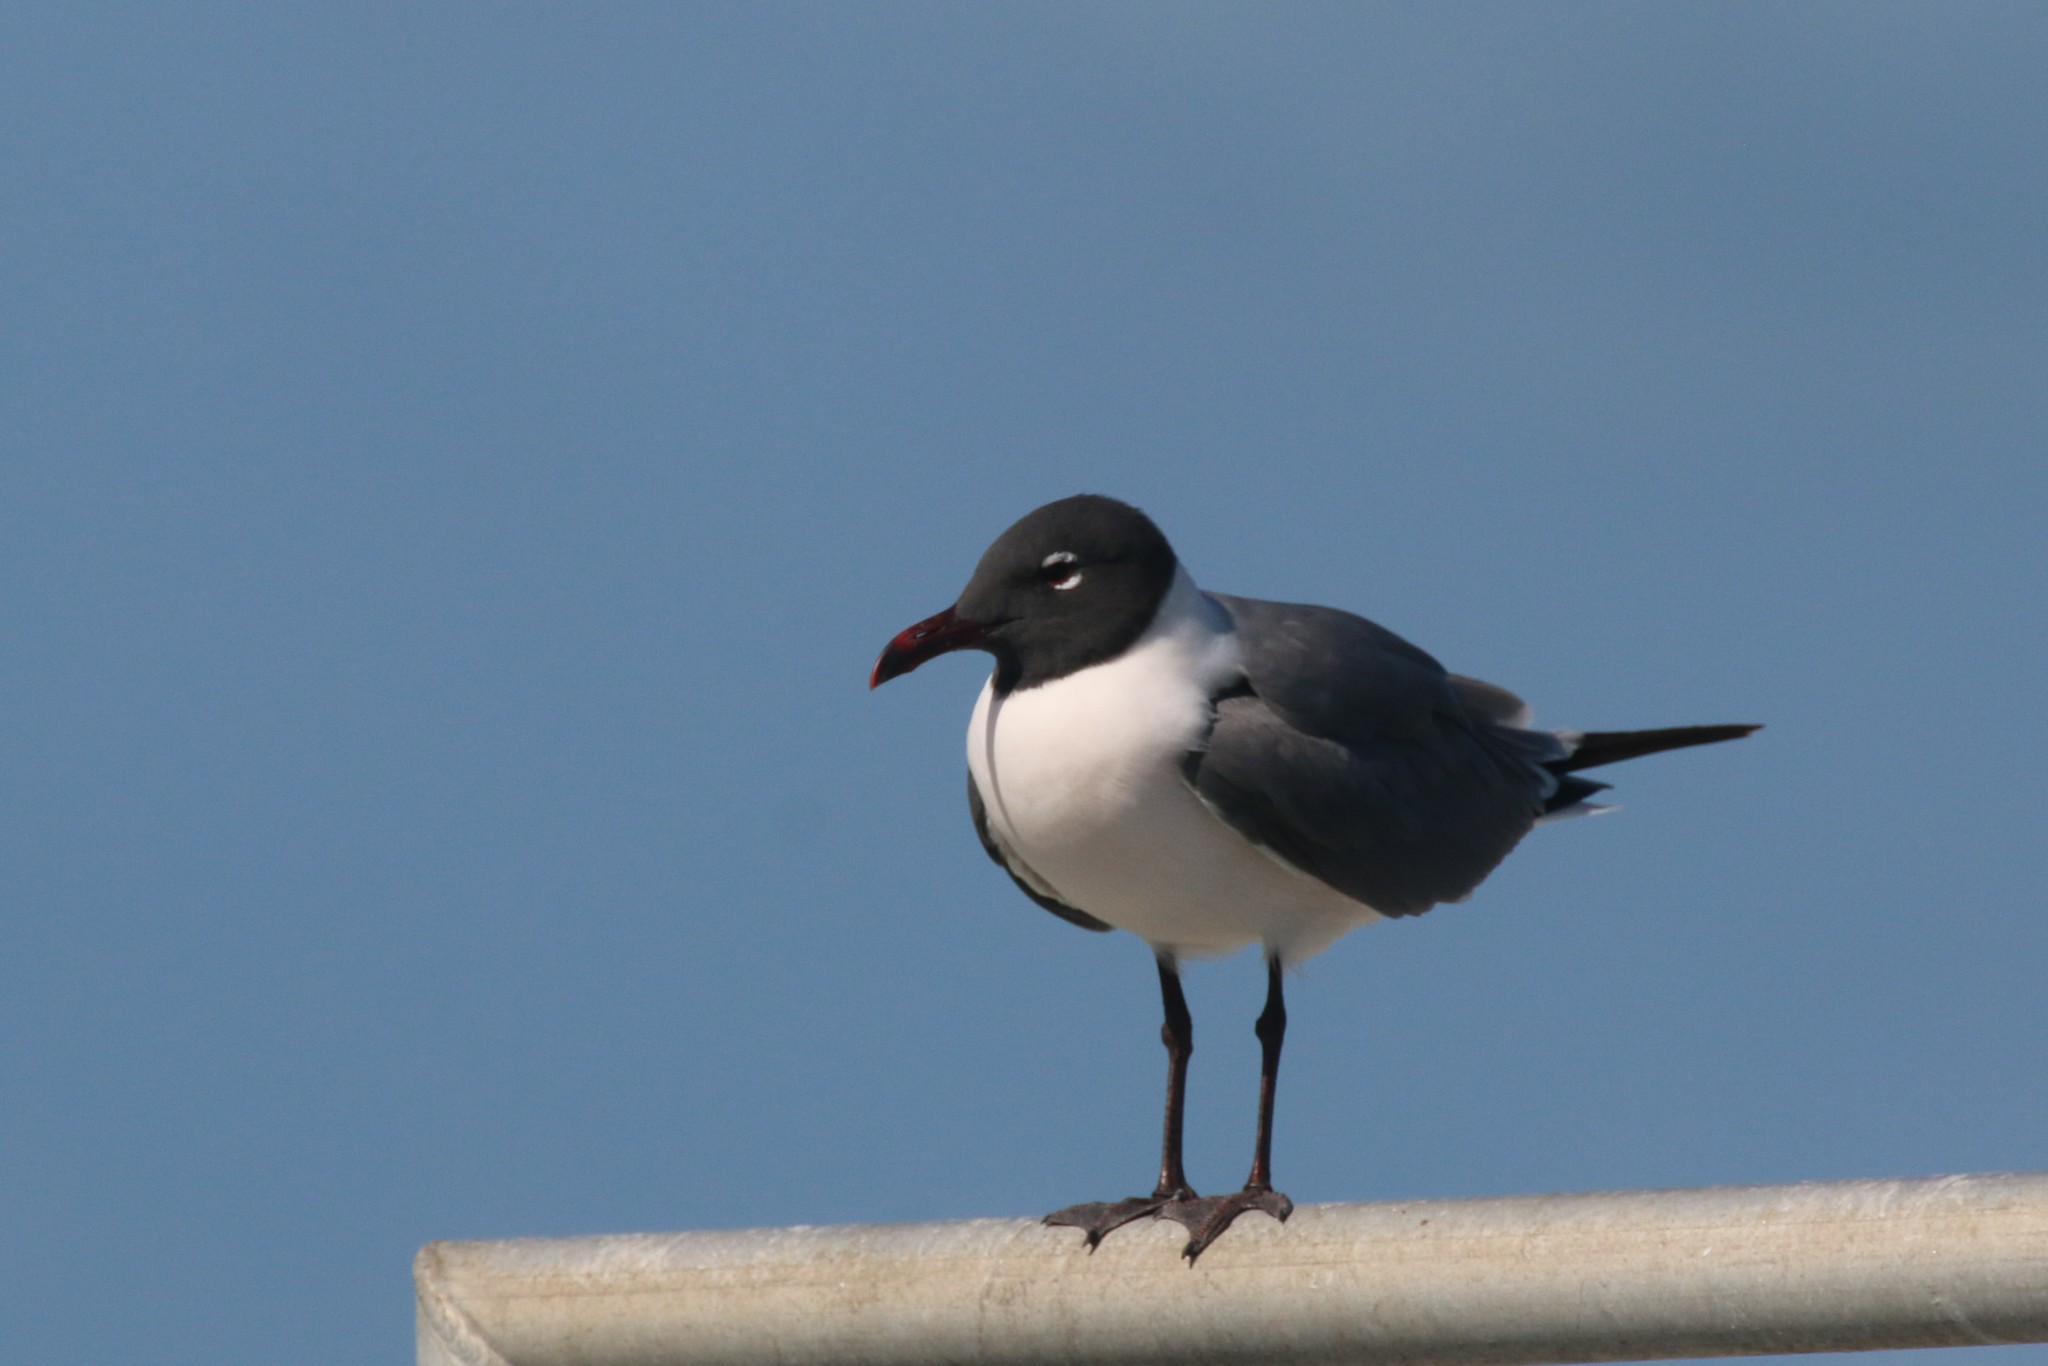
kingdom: Animalia
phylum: Chordata
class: Aves
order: Charadriiformes
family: Laridae
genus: Leucophaeus
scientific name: Leucophaeus atricilla
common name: Laughing gull
